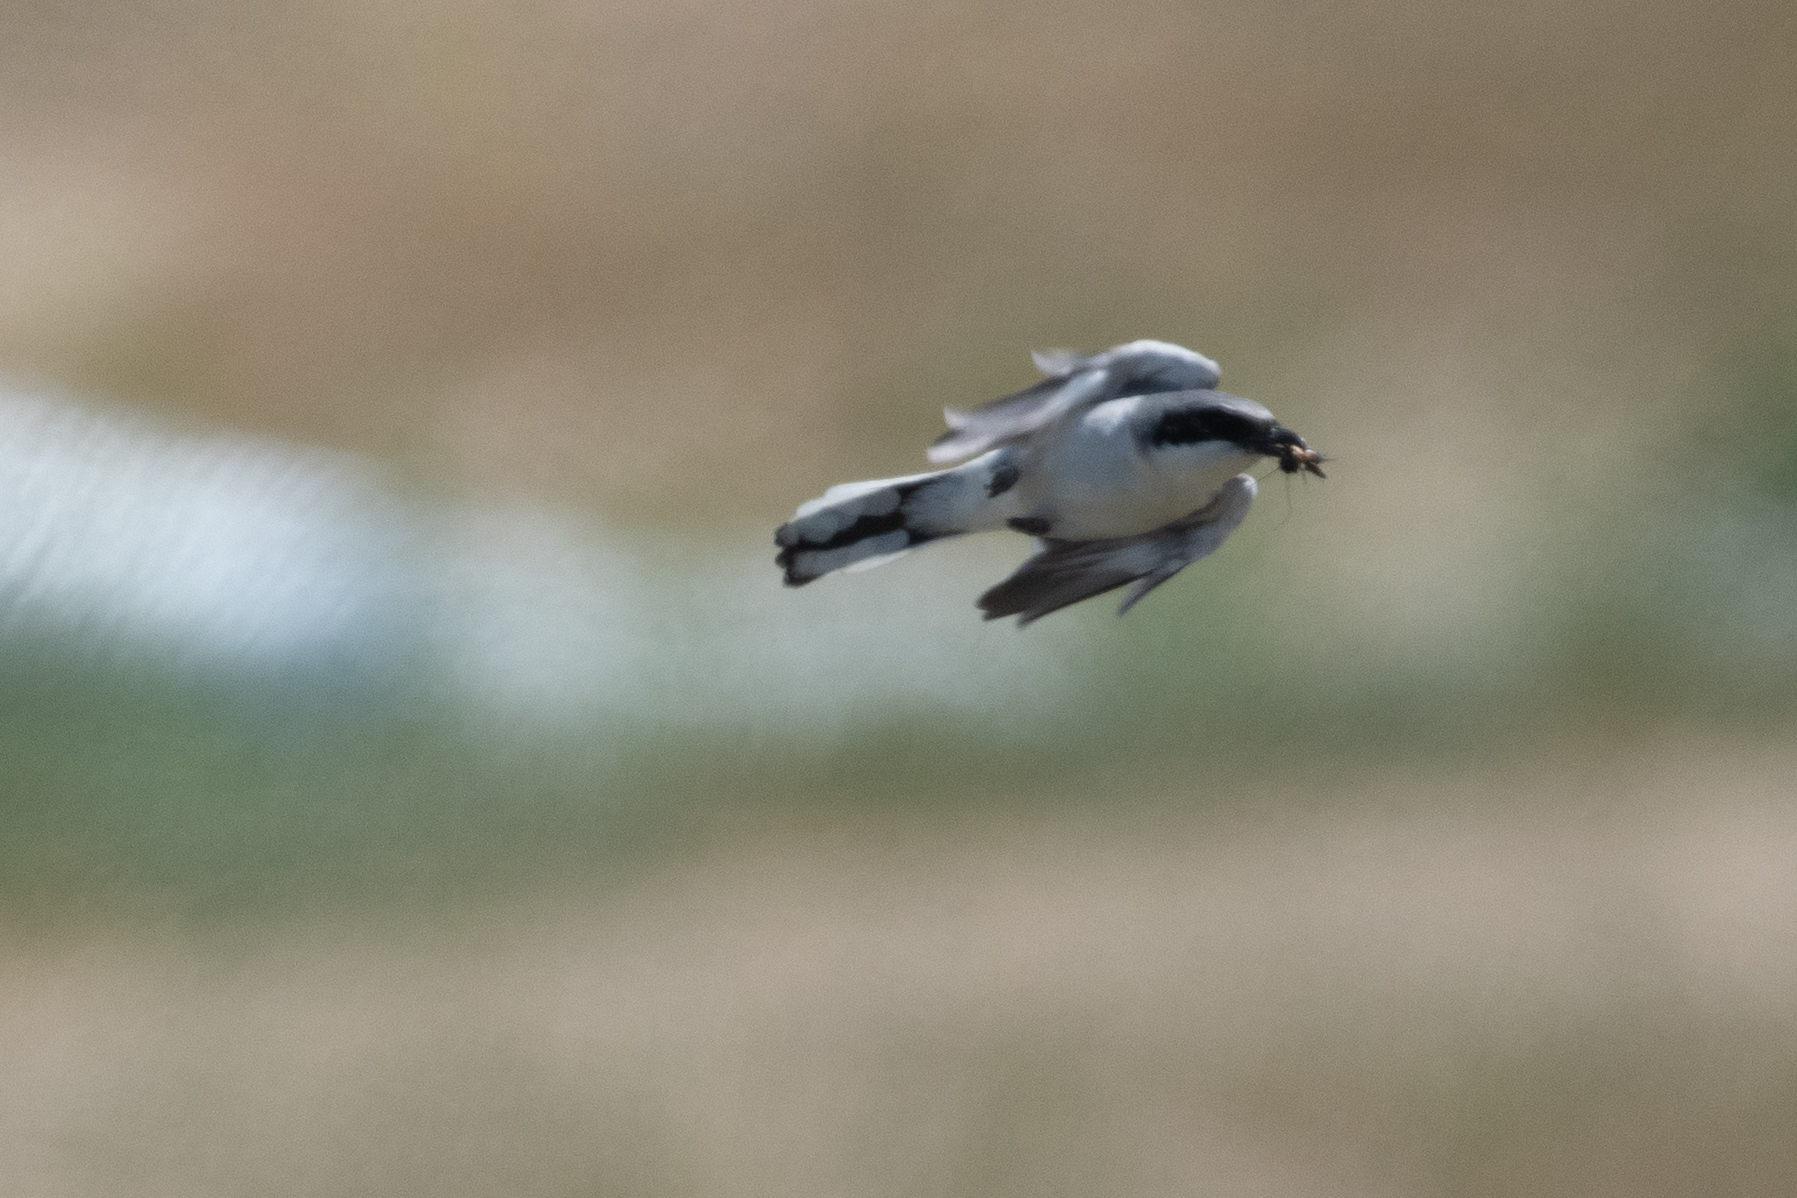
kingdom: Animalia
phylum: Chordata
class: Aves
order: Passeriformes
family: Laniidae
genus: Lanius
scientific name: Lanius ludovicianus
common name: Loggerhead shrike
